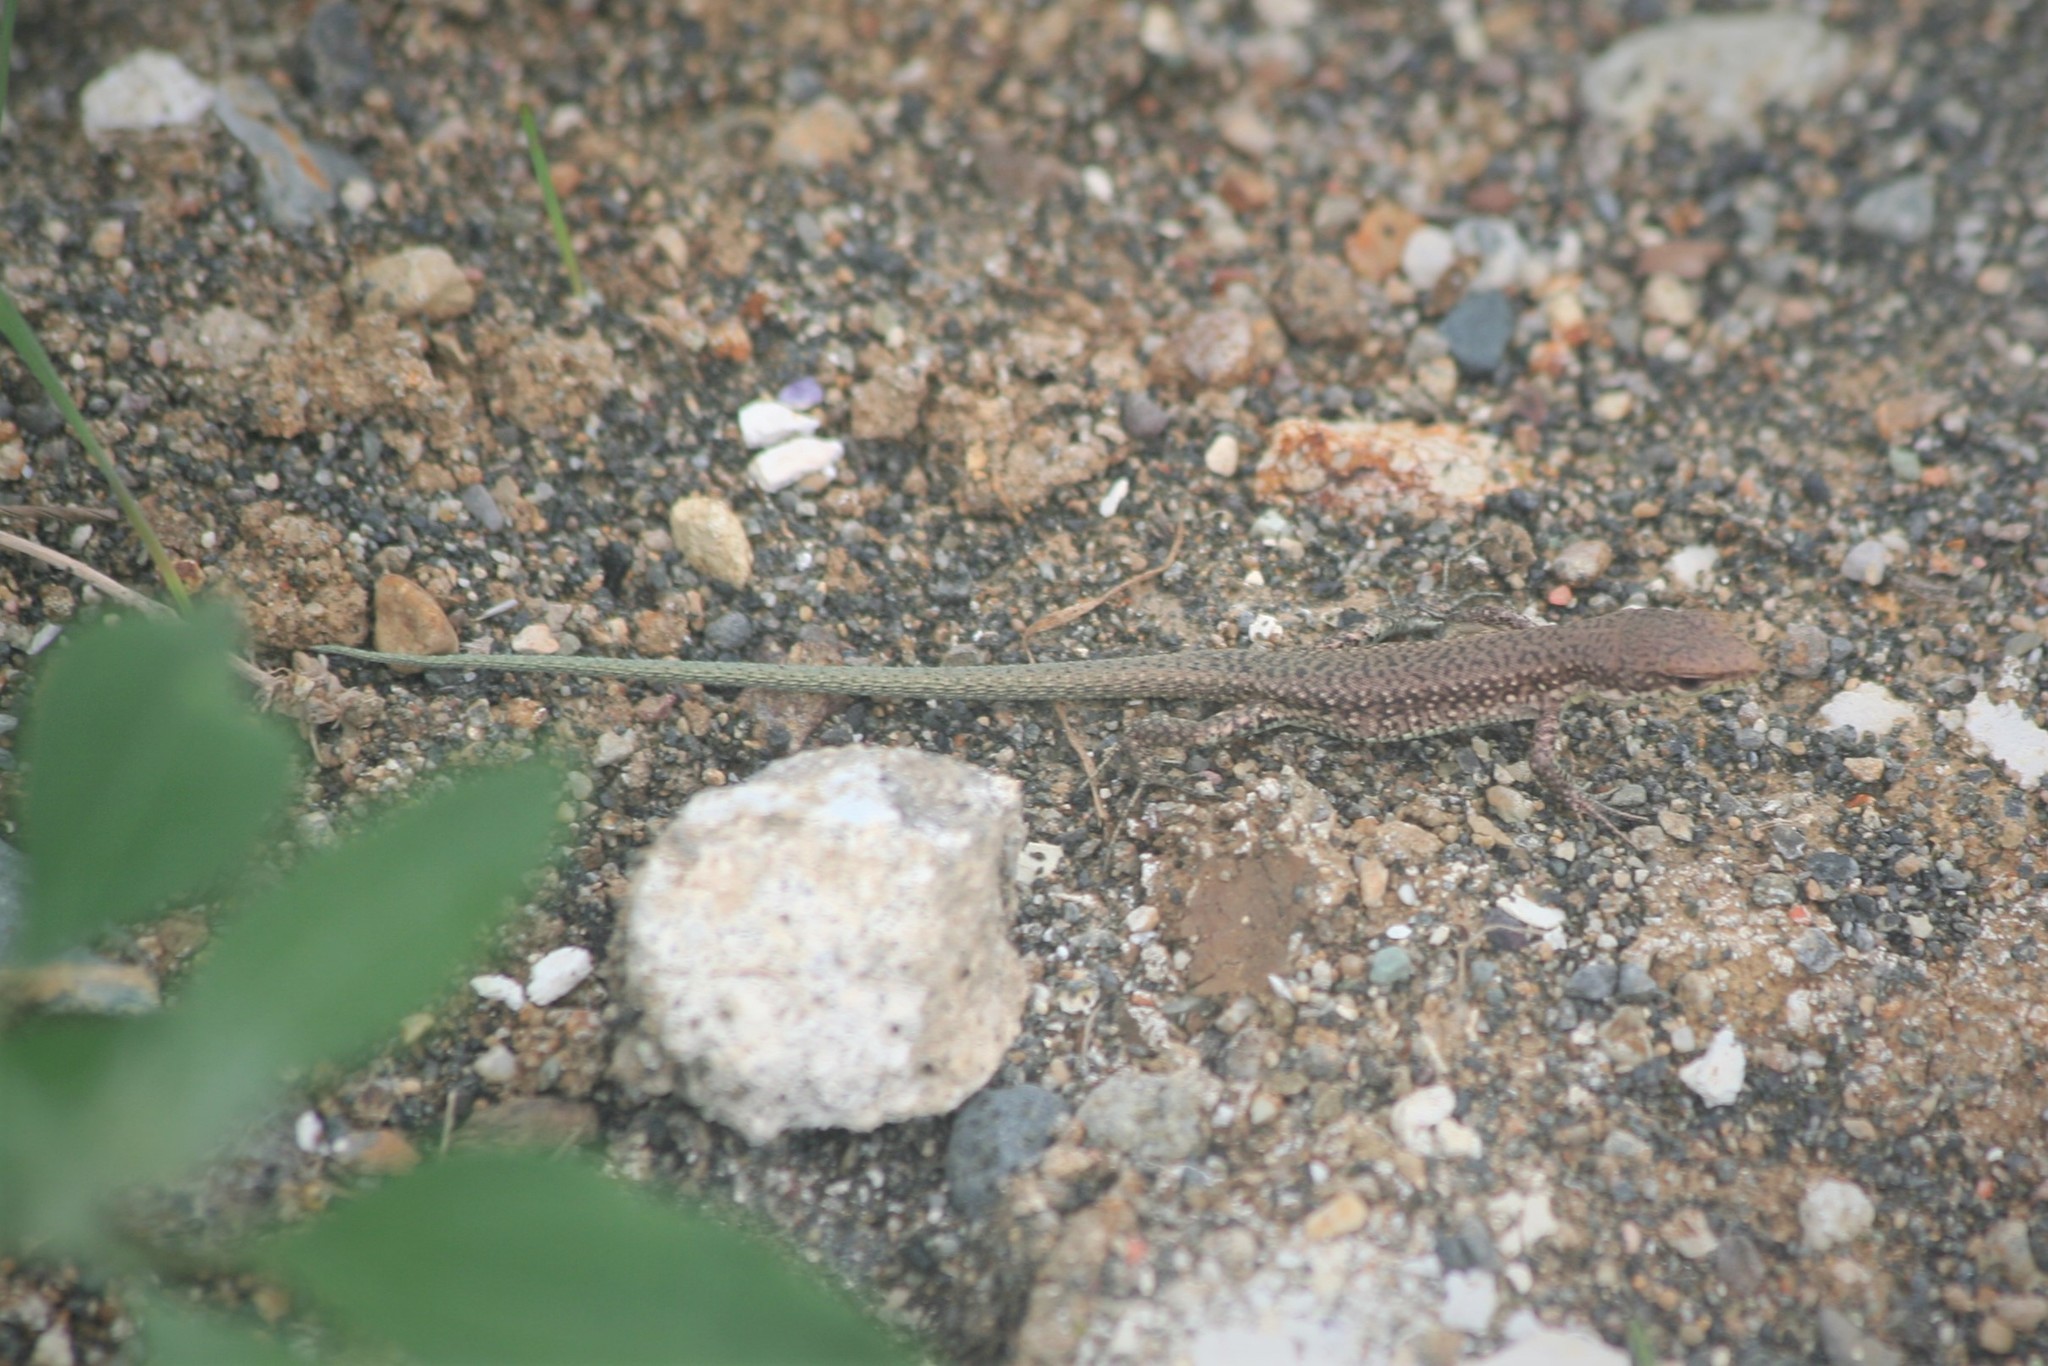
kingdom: Animalia
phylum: Chordata
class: Squamata
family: Lacertidae
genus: Darevskia
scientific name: Darevskia rudis
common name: Spiny-tailed lizard
